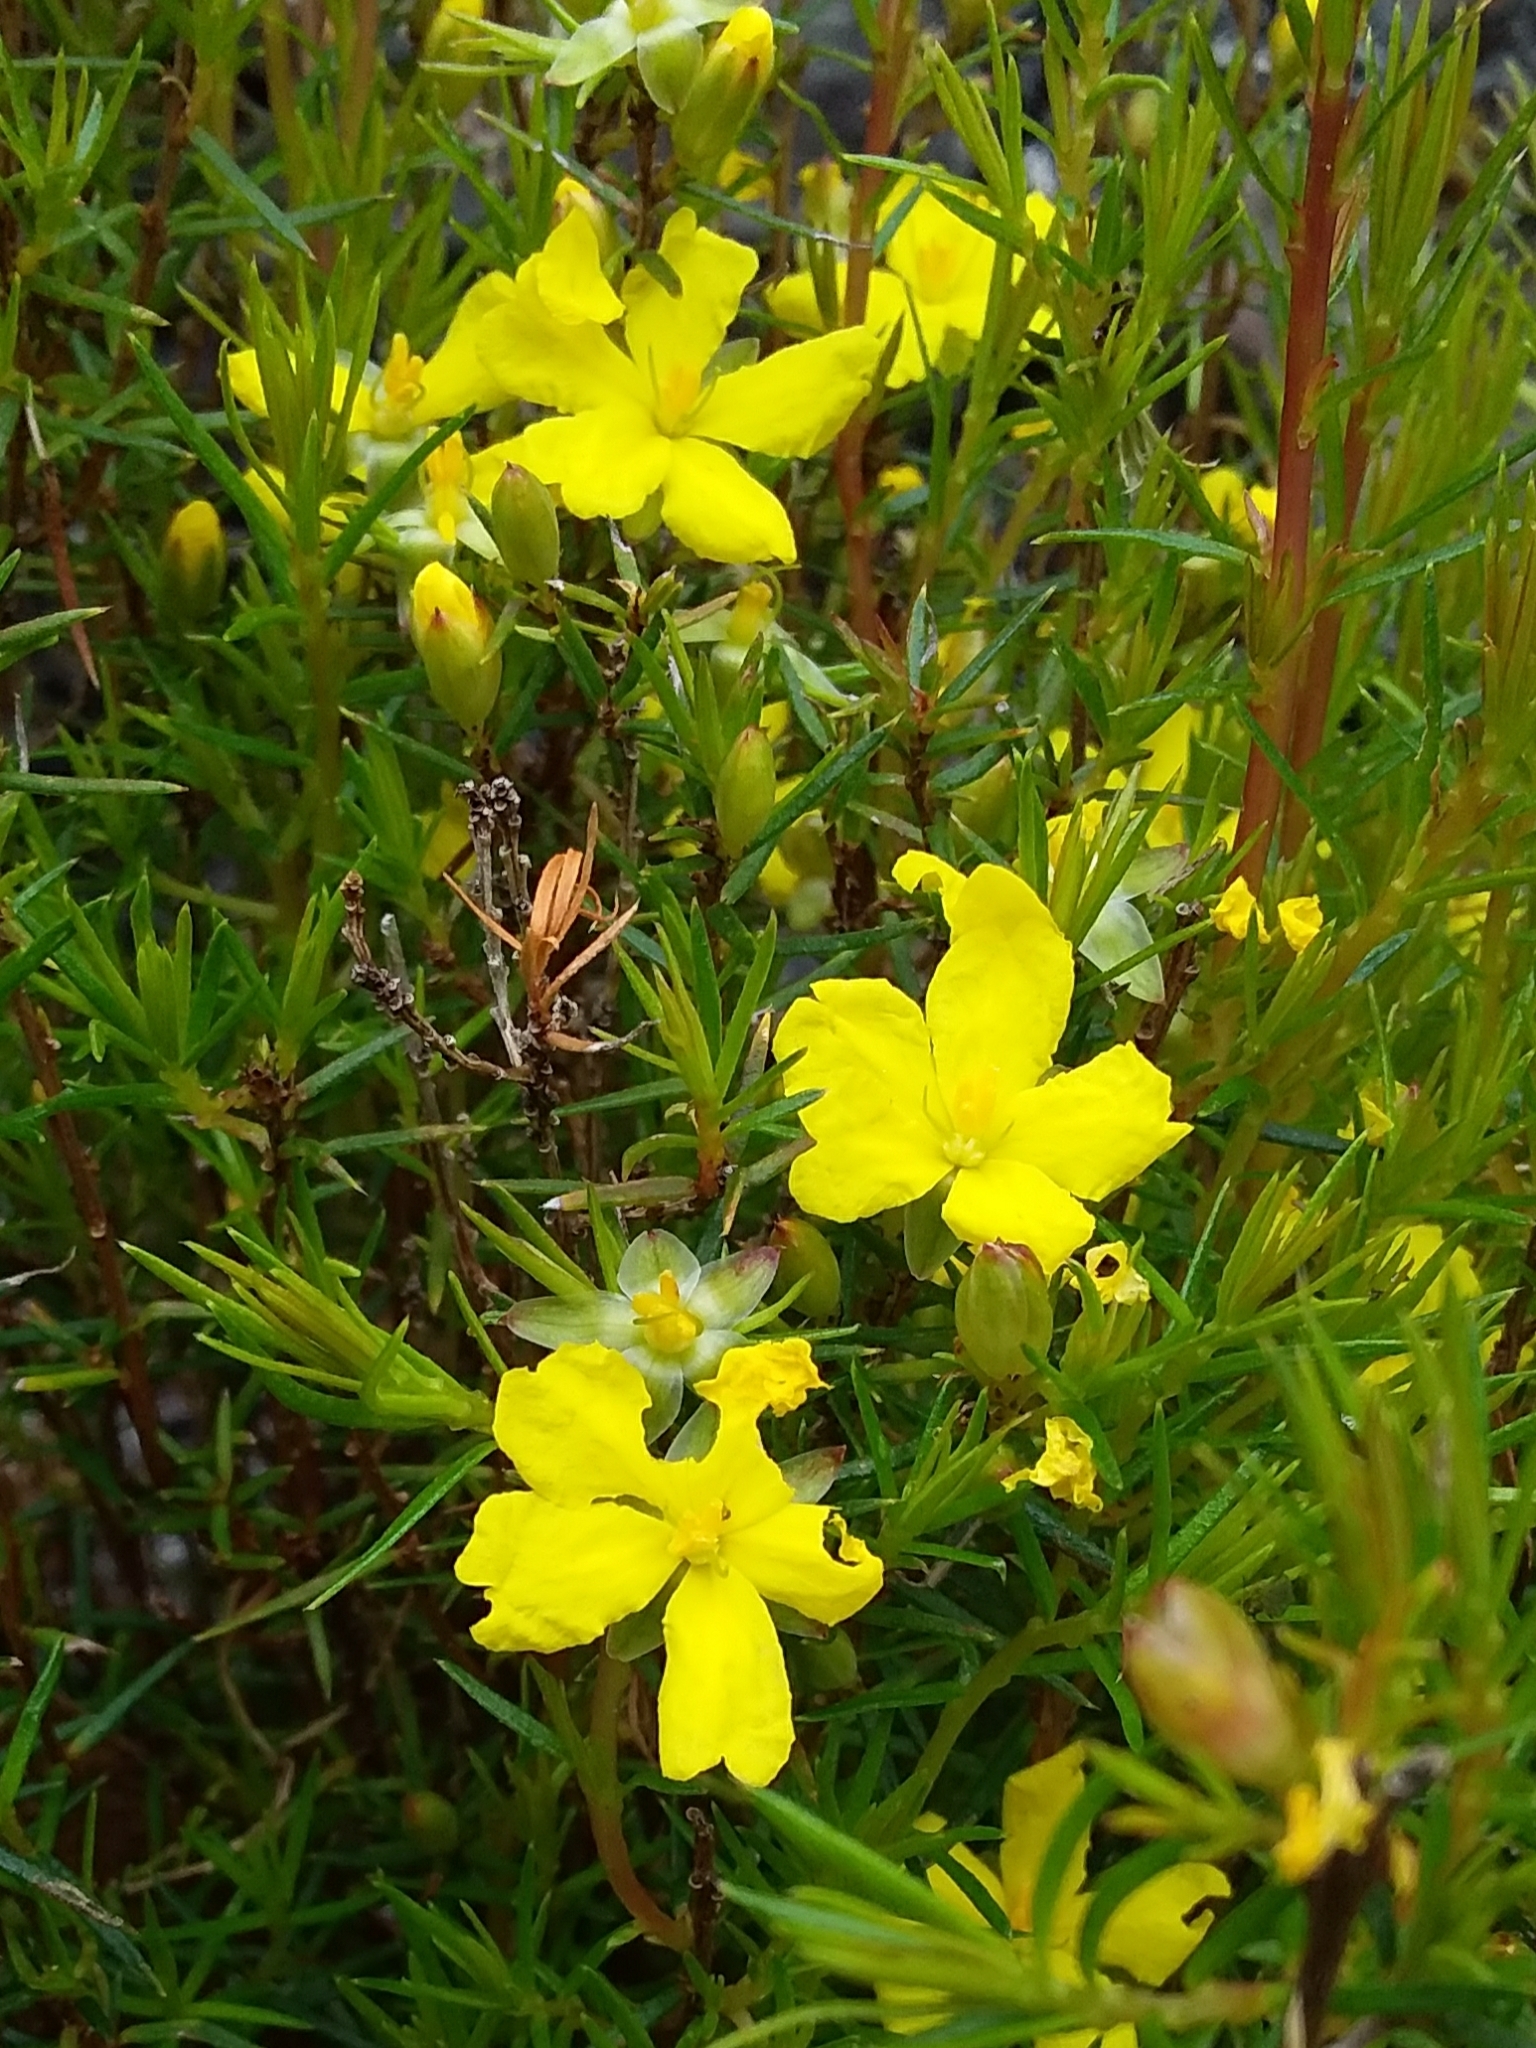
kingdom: Plantae
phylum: Tracheophyta
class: Magnoliopsida
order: Dilleniales
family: Dilleniaceae
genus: Hibbertia
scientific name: Hibbertia exutiacies
